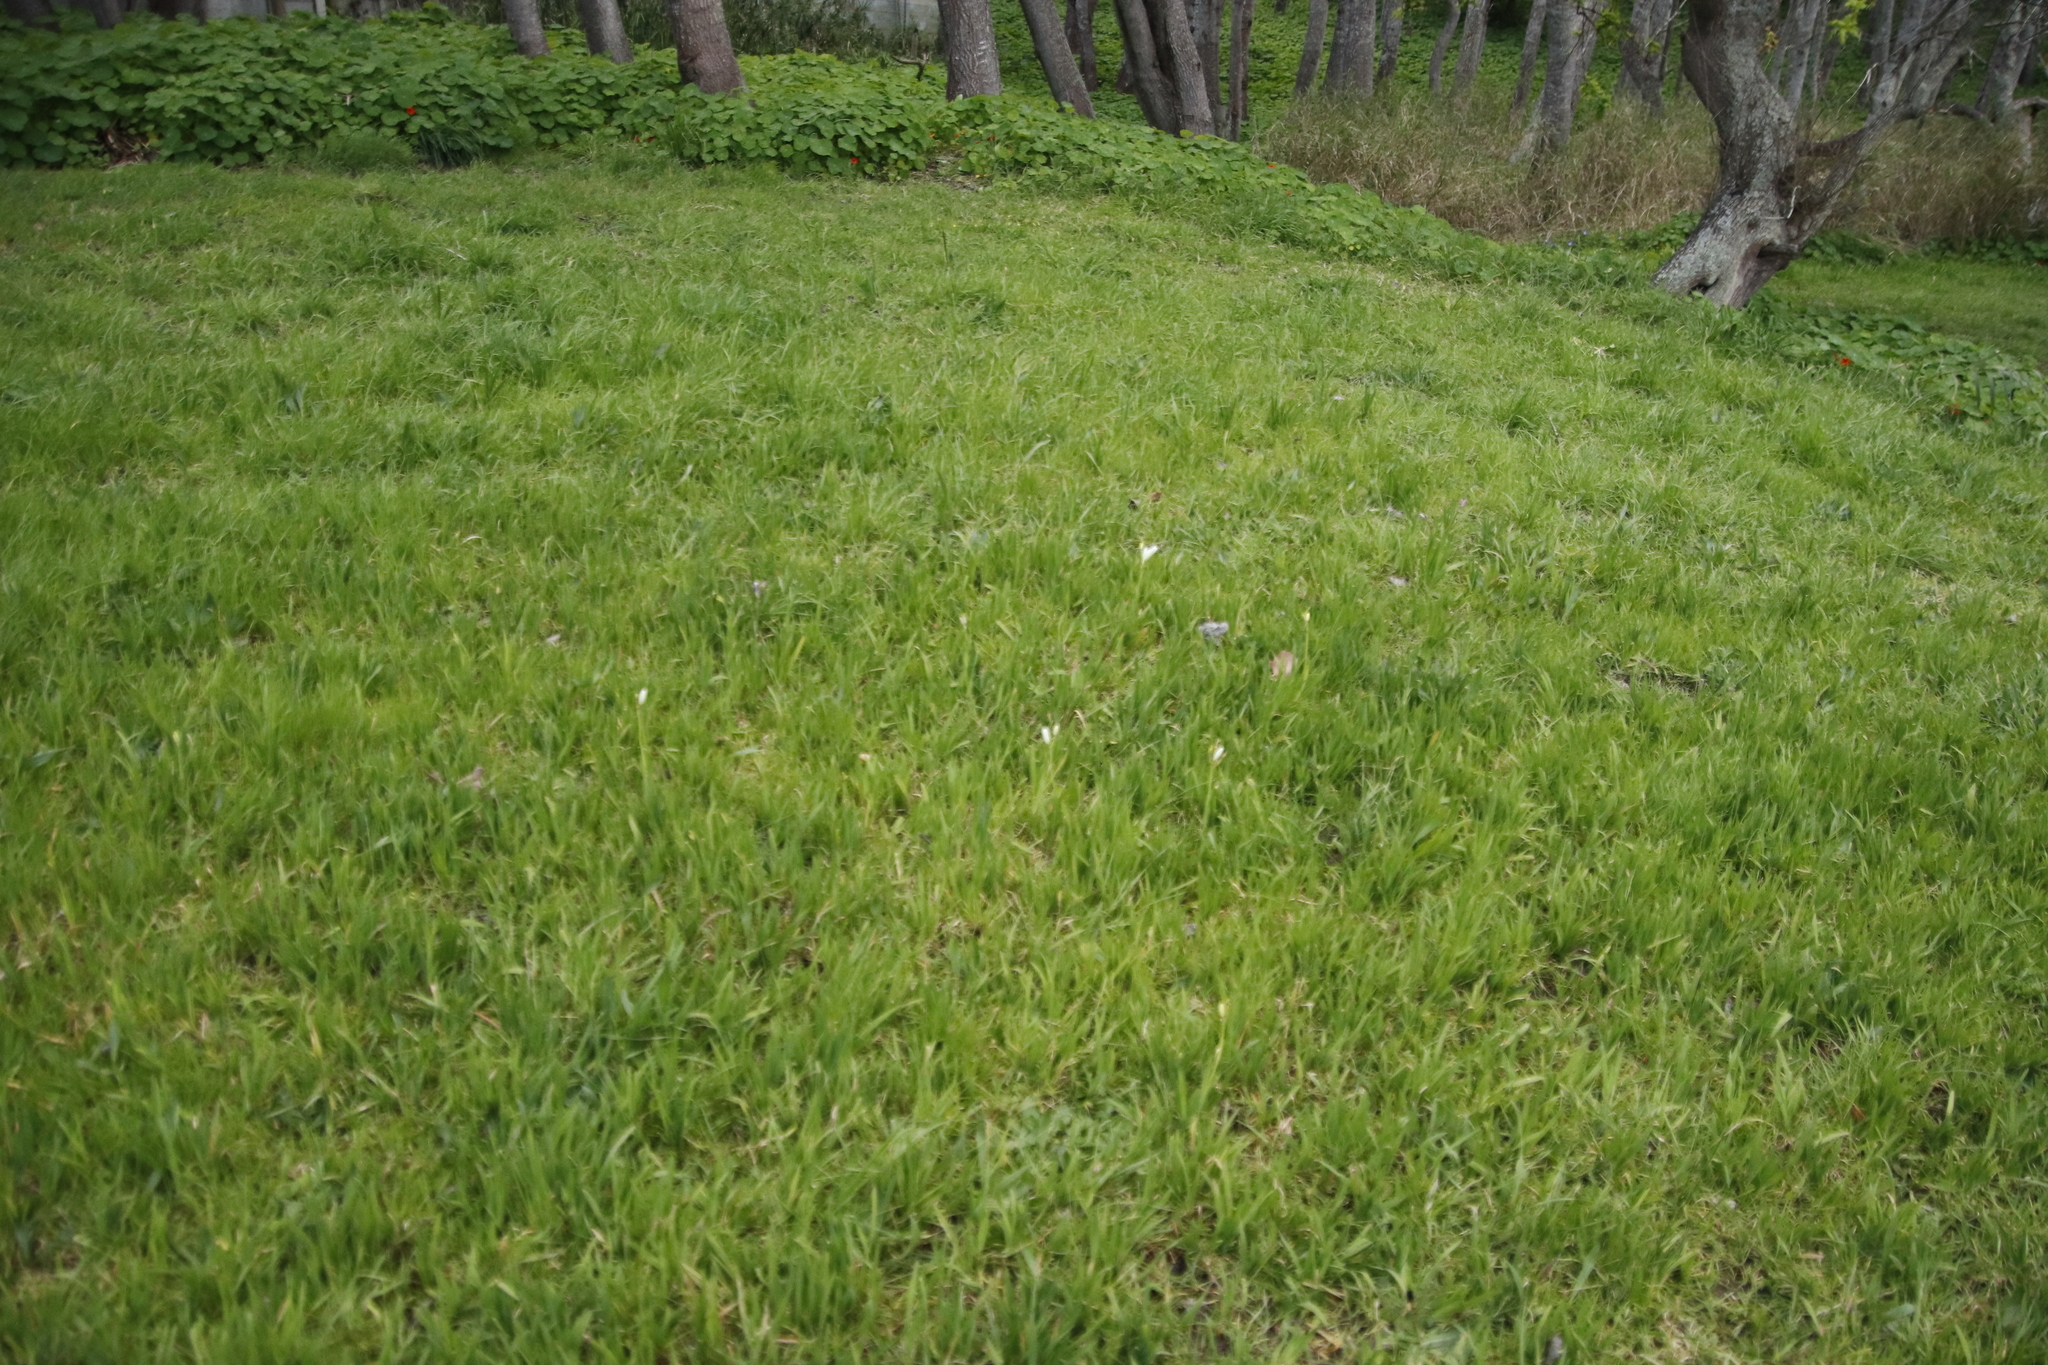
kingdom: Plantae
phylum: Tracheophyta
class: Liliopsida
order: Asparagales
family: Iridaceae
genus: Sparaxis
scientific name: Sparaxis bulbifera
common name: Harlequin-flower
